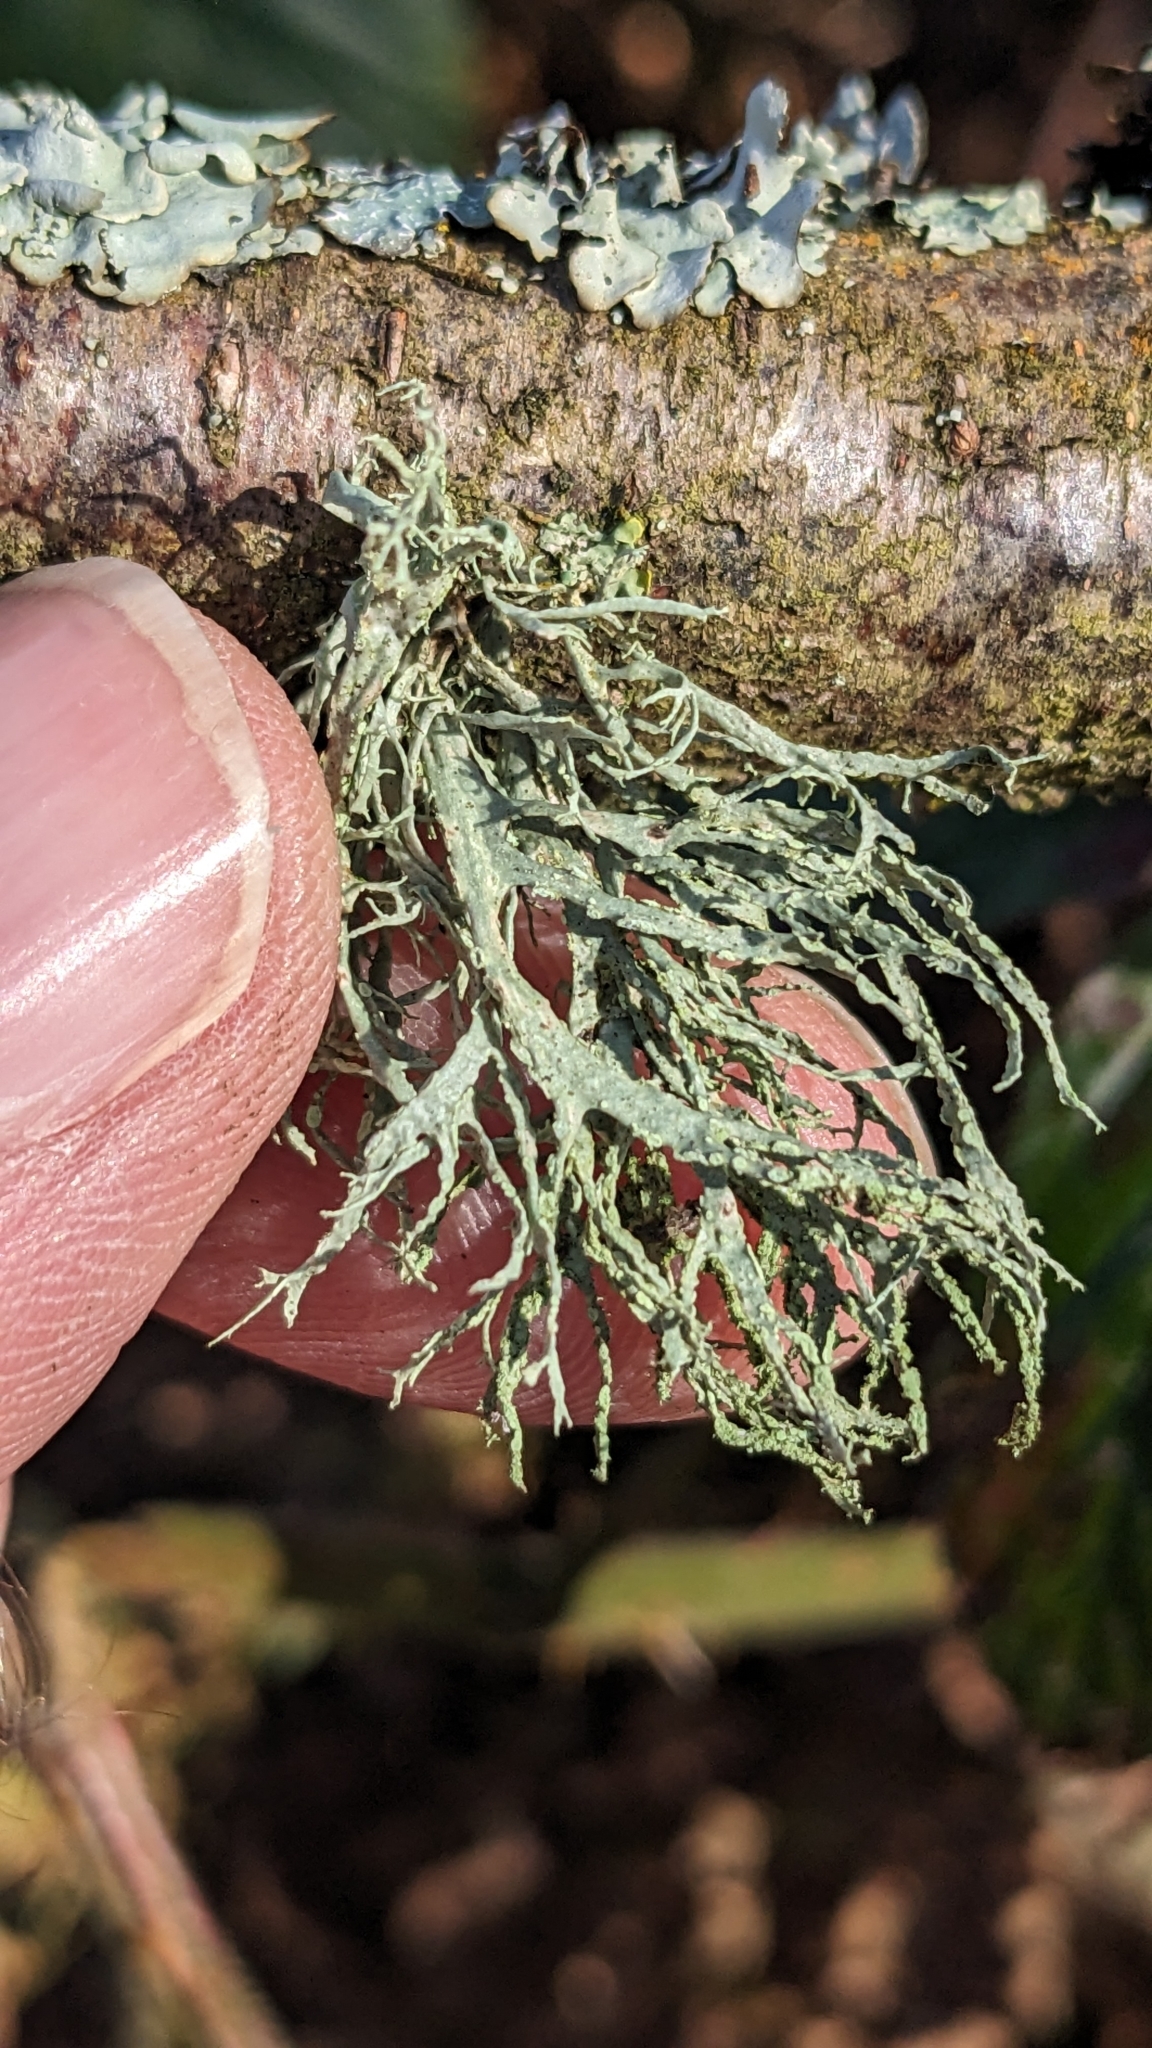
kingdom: Fungi
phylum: Ascomycota
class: Lecanoromycetes
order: Lecanorales
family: Ramalinaceae
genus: Ramalina
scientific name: Ramalina farinacea
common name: Farinose cartilage lichen
